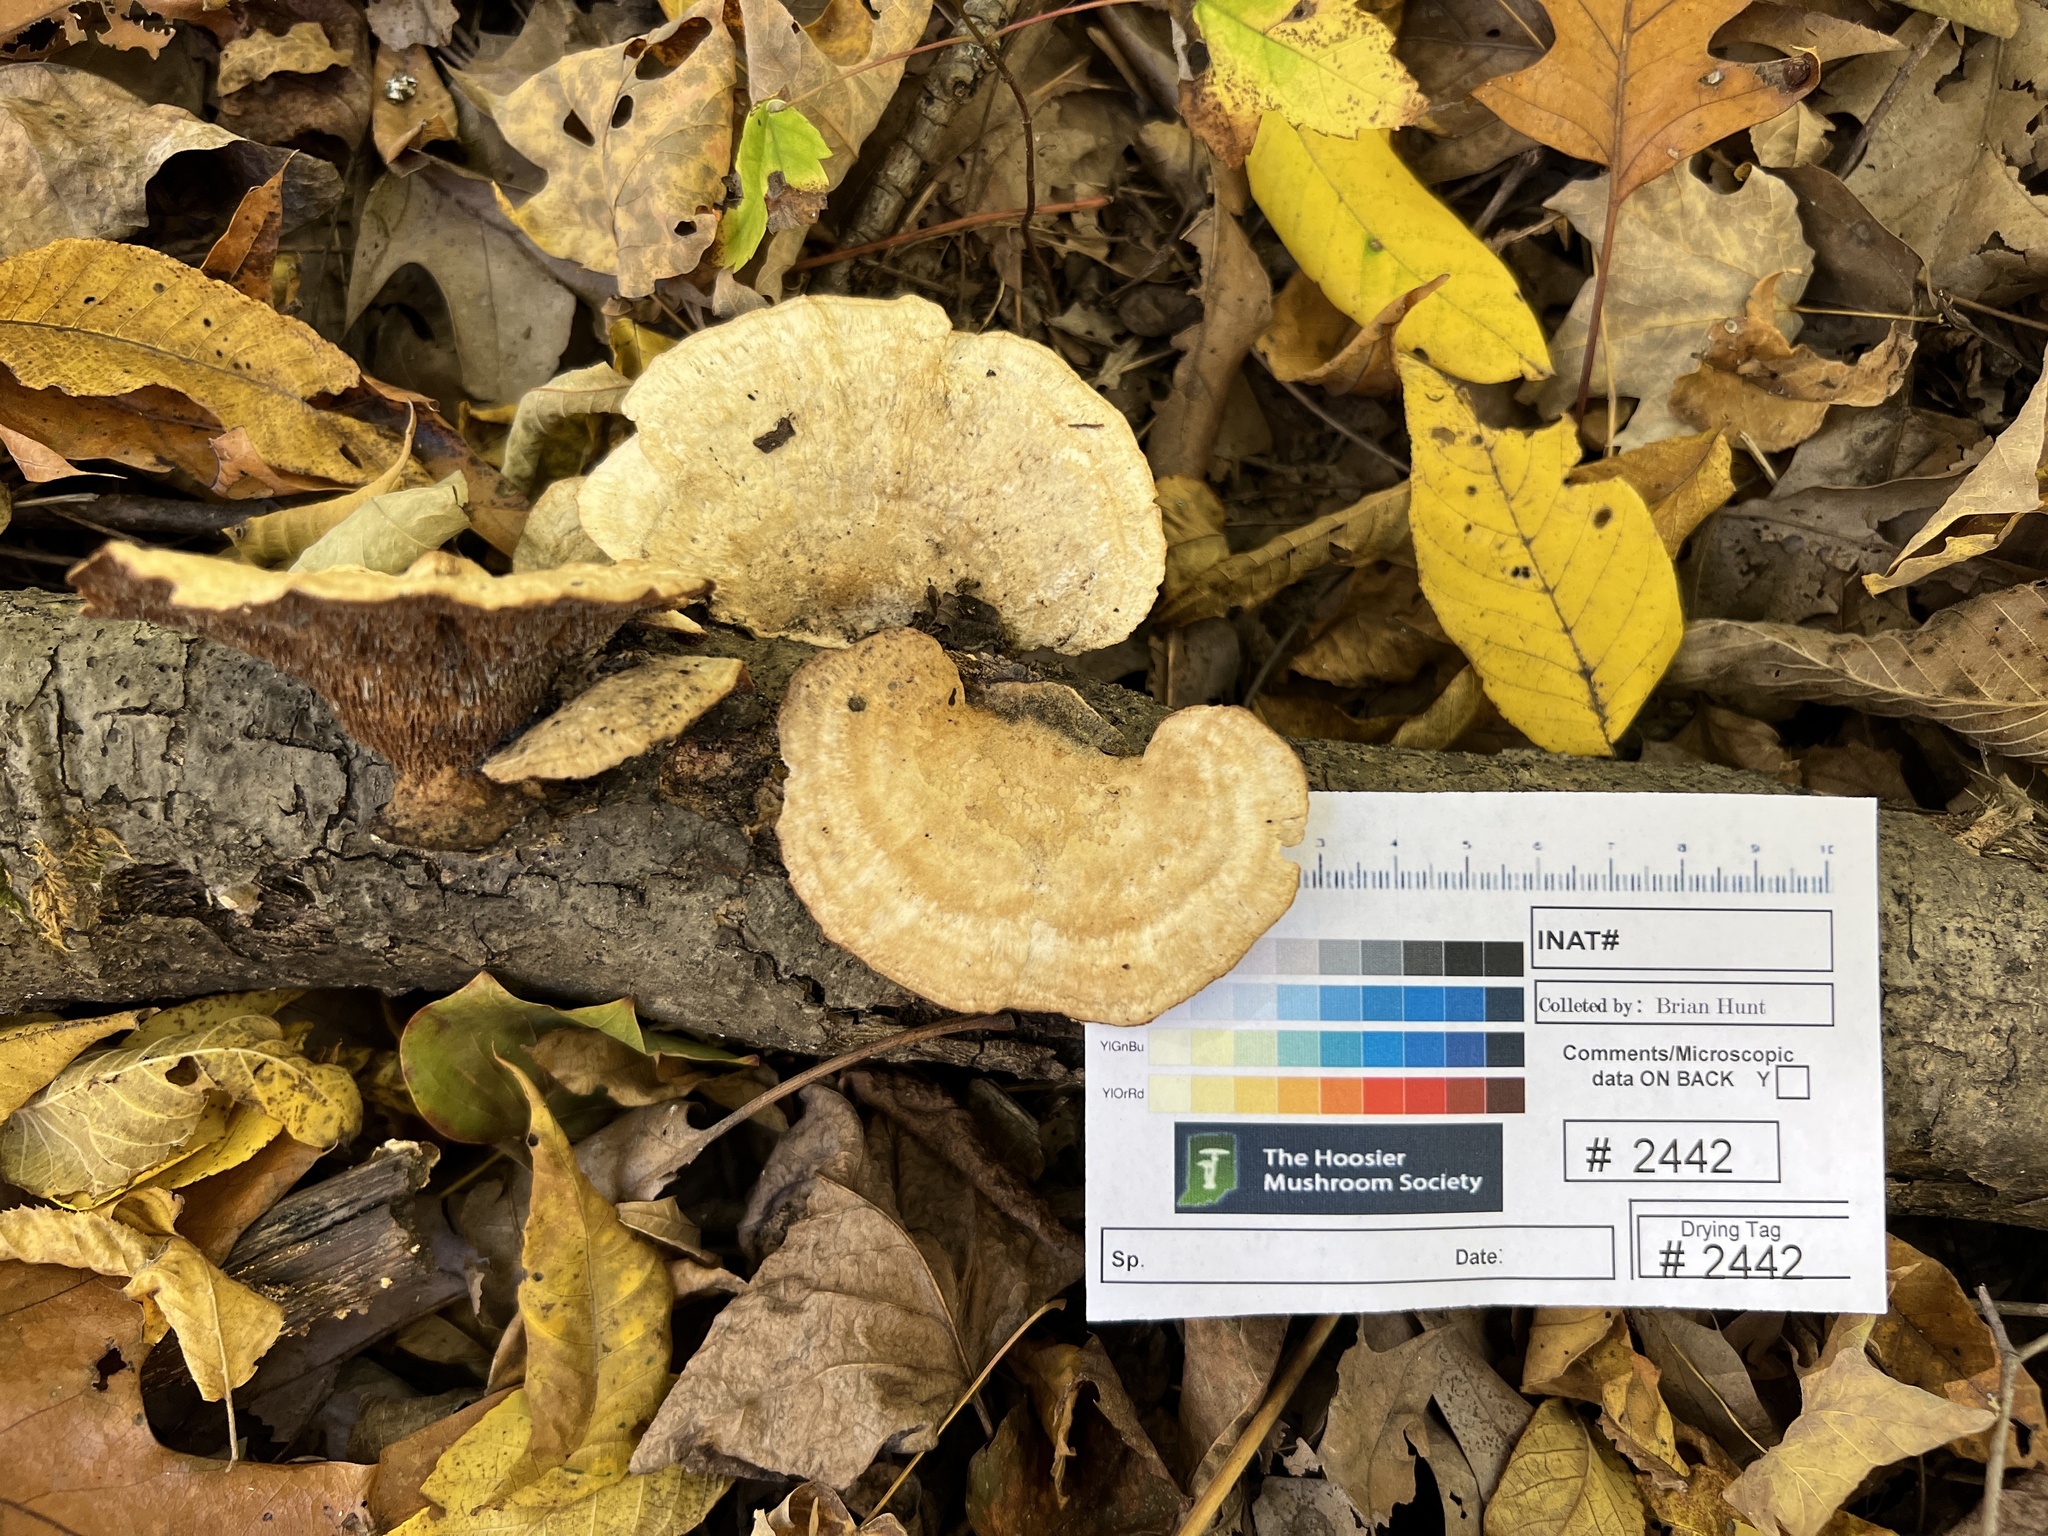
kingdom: Fungi
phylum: Basidiomycota
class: Agaricomycetes
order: Polyporales
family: Steccherinaceae
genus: Mycorrhaphium
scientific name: Mycorrhaphium adustum
